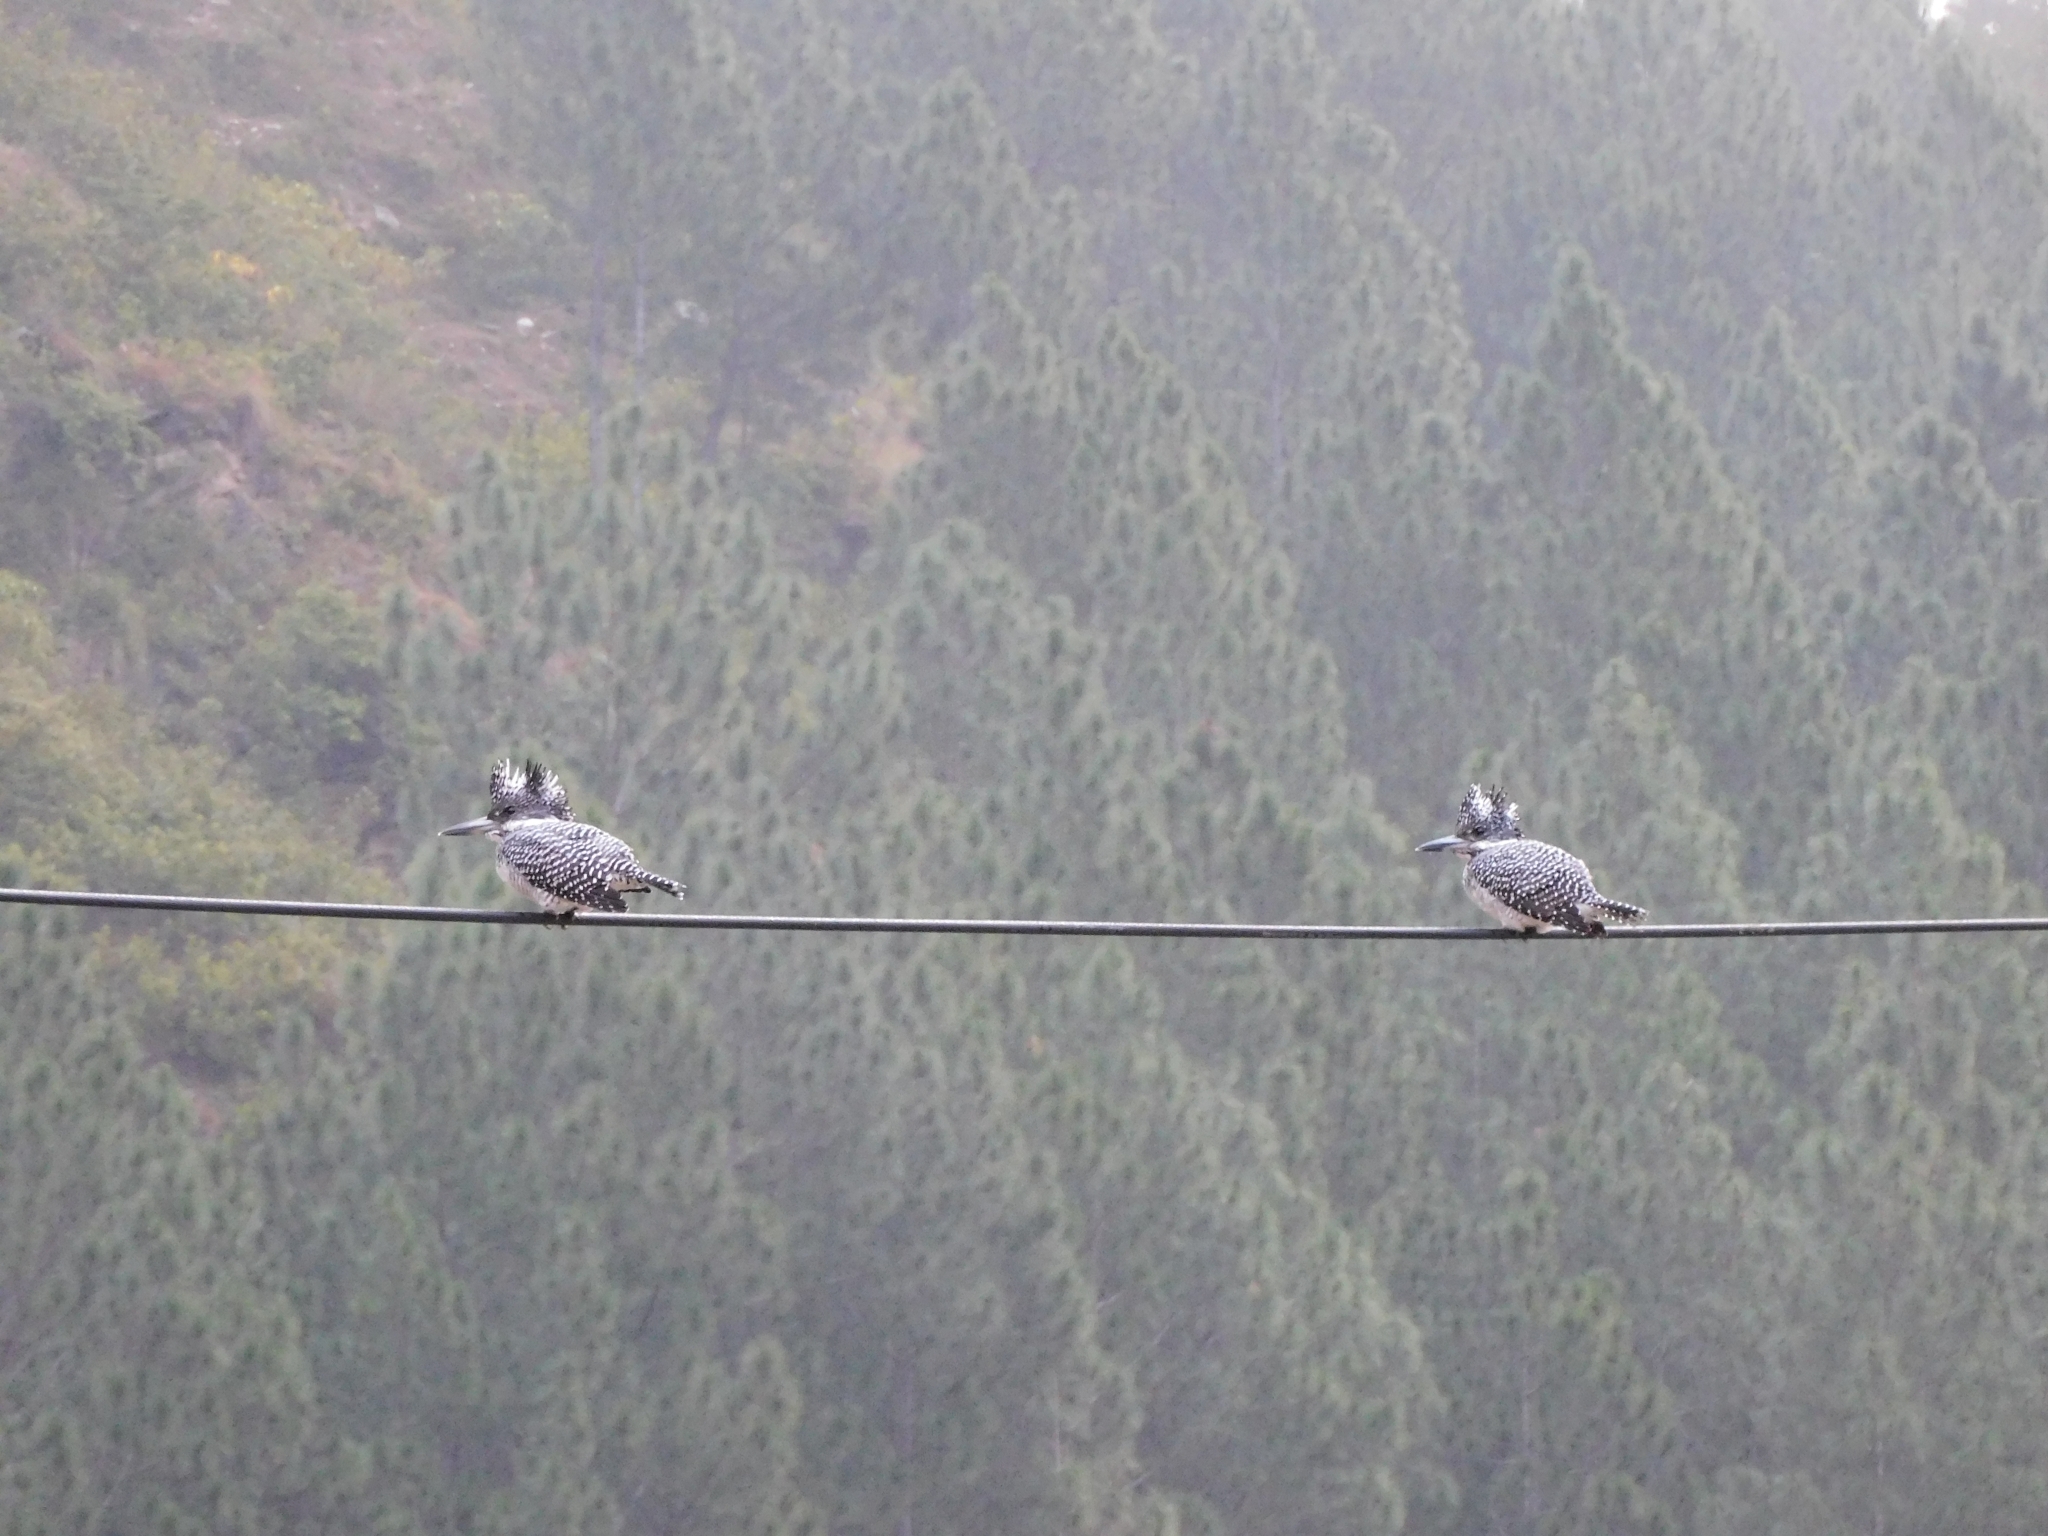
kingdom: Animalia
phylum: Chordata
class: Aves
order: Coraciiformes
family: Alcedinidae
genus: Megaceryle
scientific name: Megaceryle lugubris
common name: Crested kingfisher
